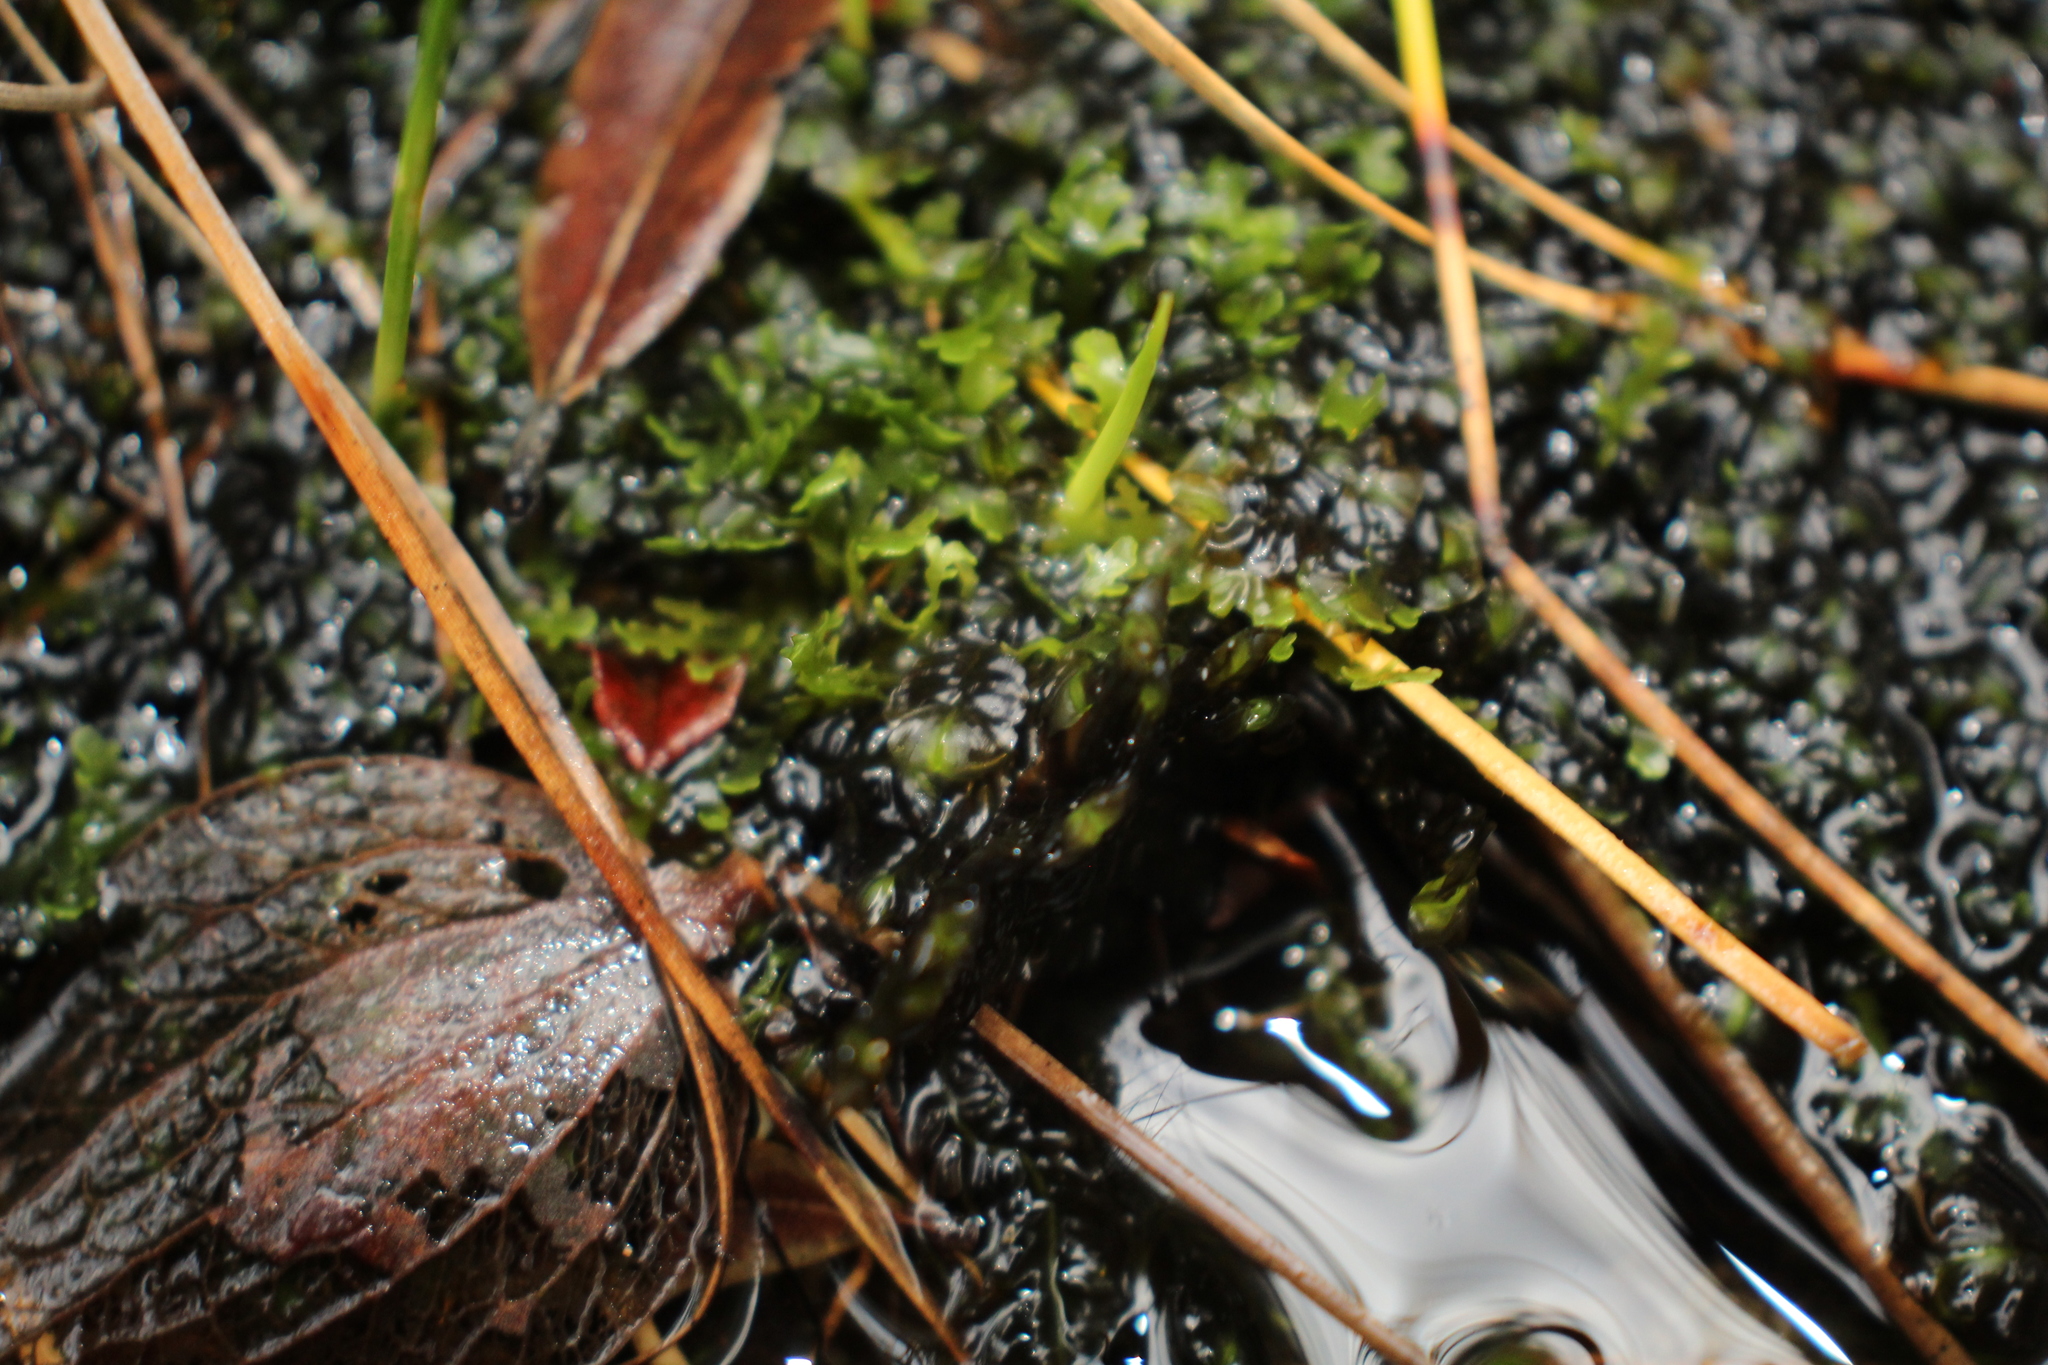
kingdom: Plantae
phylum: Marchantiophyta
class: Jungermanniopsida
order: Jungermanniales
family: Jackiellaceae
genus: Jackiella
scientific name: Jackiella curvata
